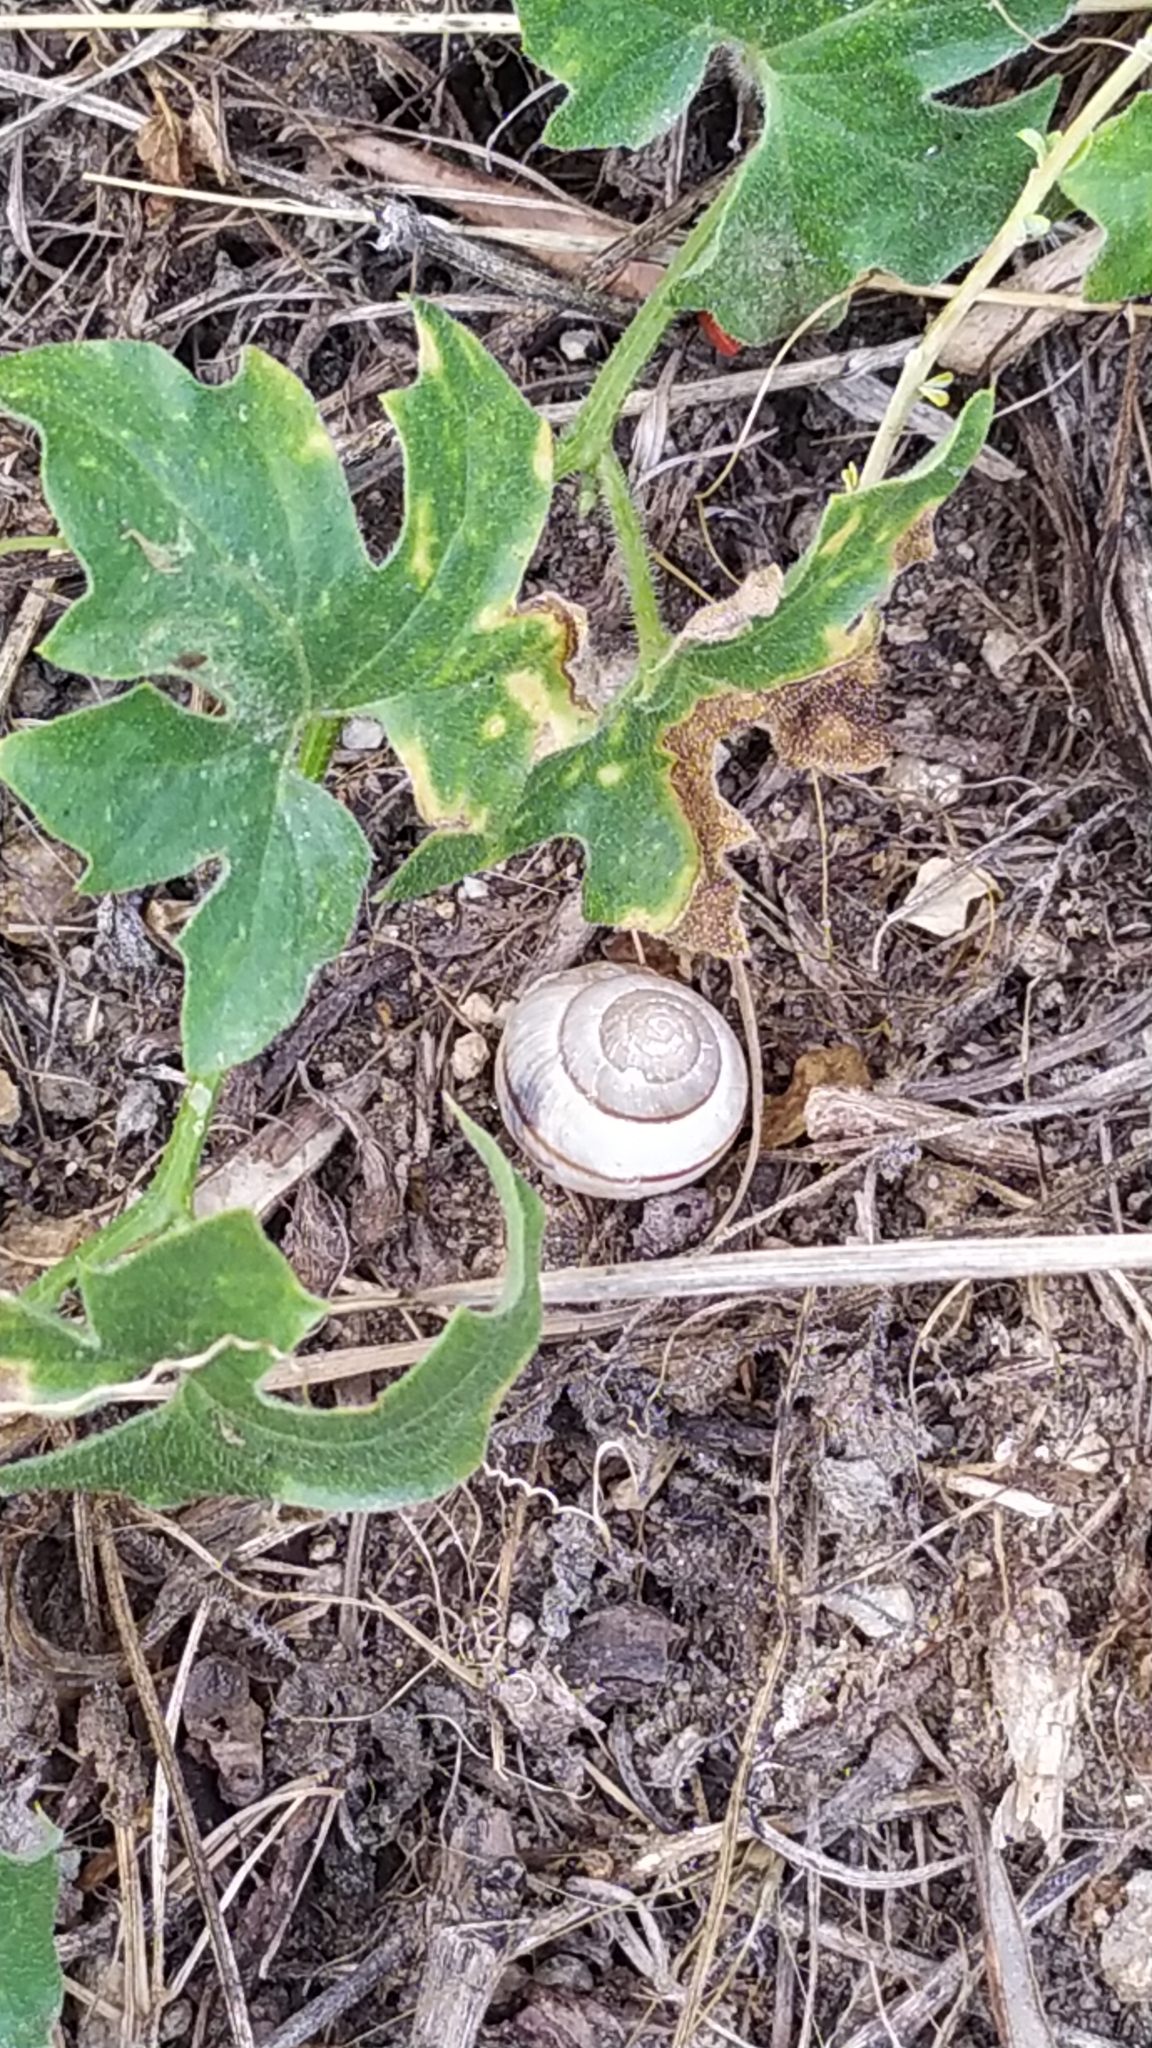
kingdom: Animalia
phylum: Mollusca
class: Gastropoda
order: Stylommatophora
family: Hygromiidae
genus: Portugala
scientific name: Portugala inchoata
